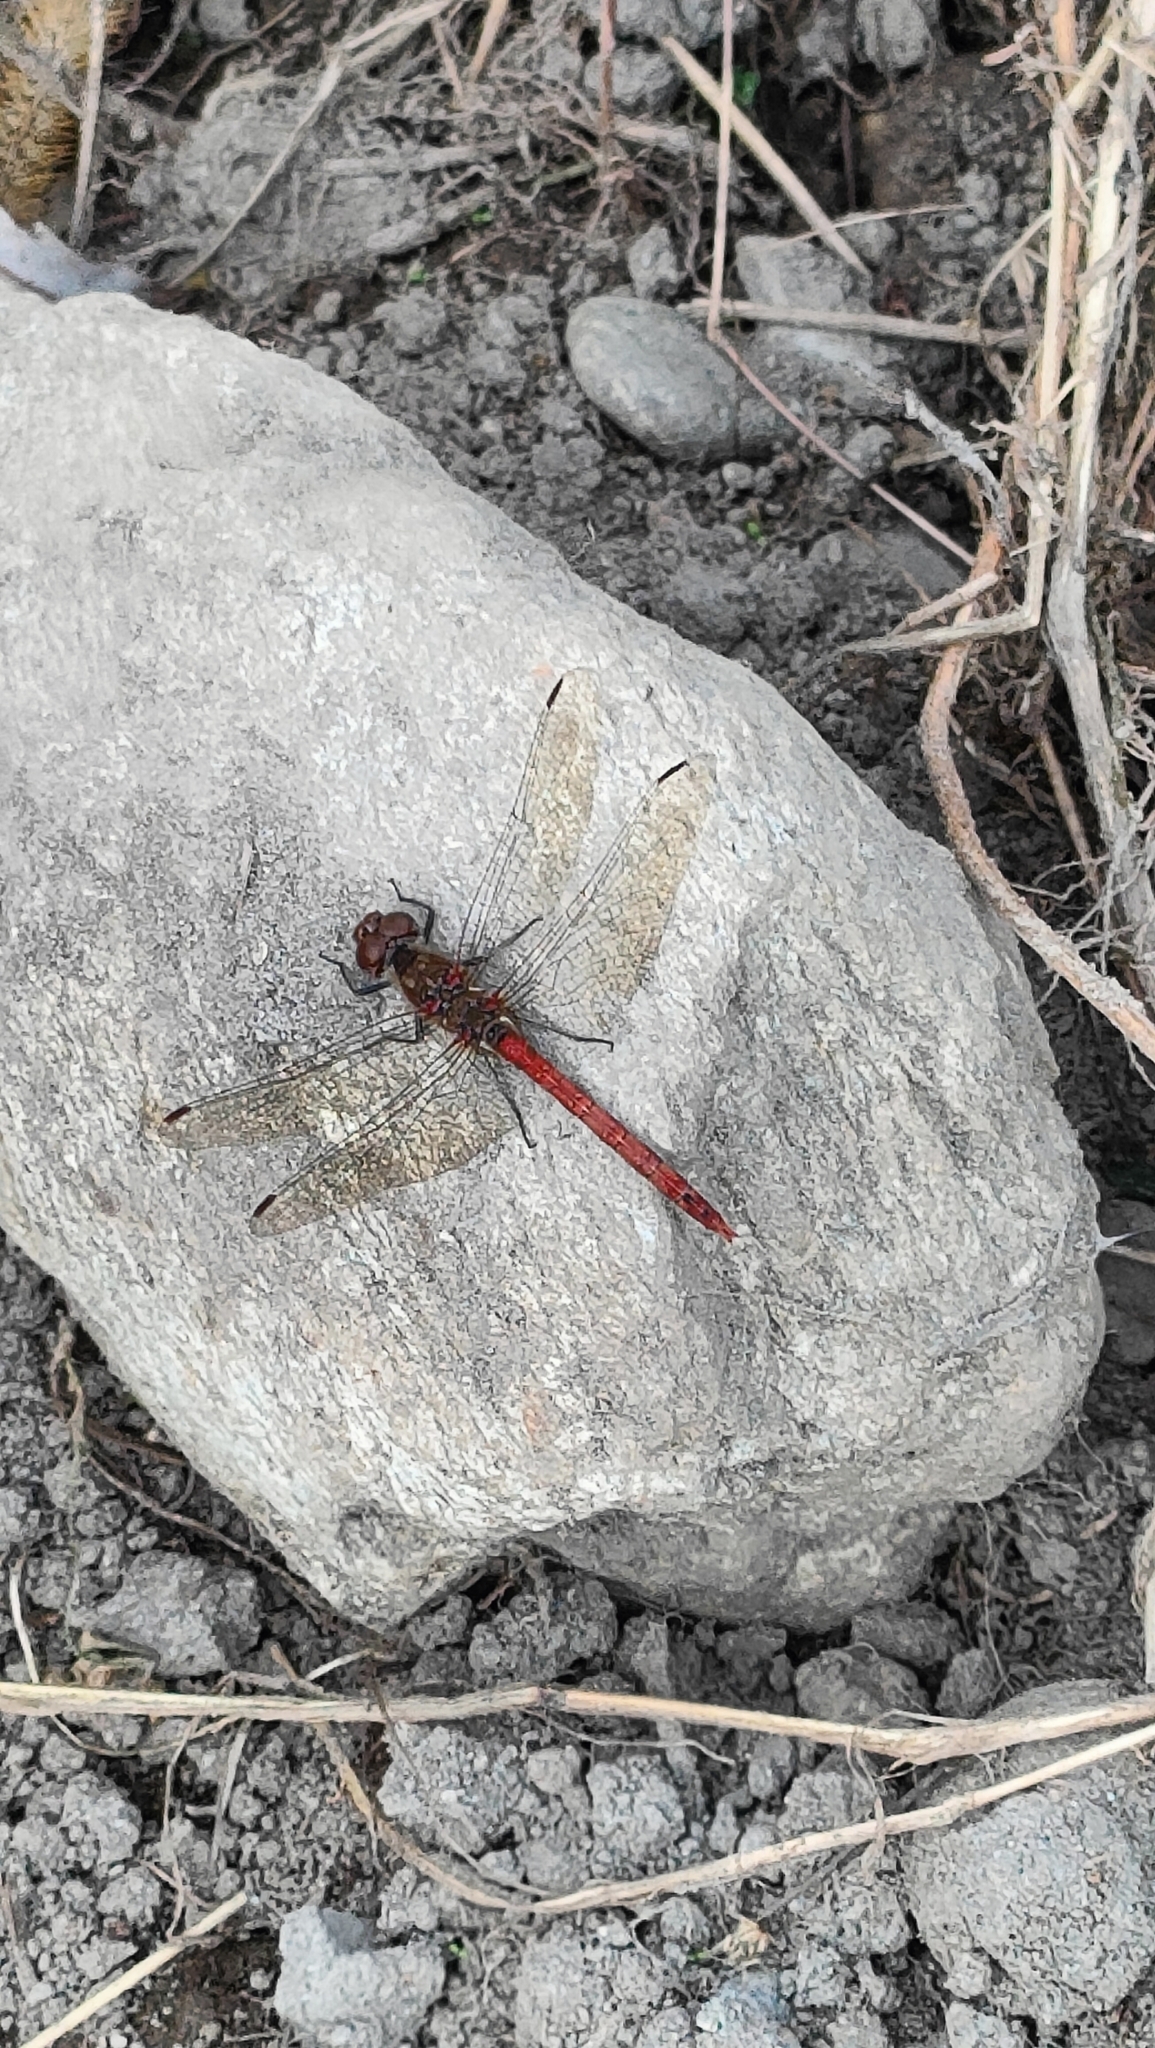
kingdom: Animalia
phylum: Arthropoda
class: Insecta
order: Odonata
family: Libellulidae
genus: Sympetrum
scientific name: Sympetrum striolatum
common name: Common darter
